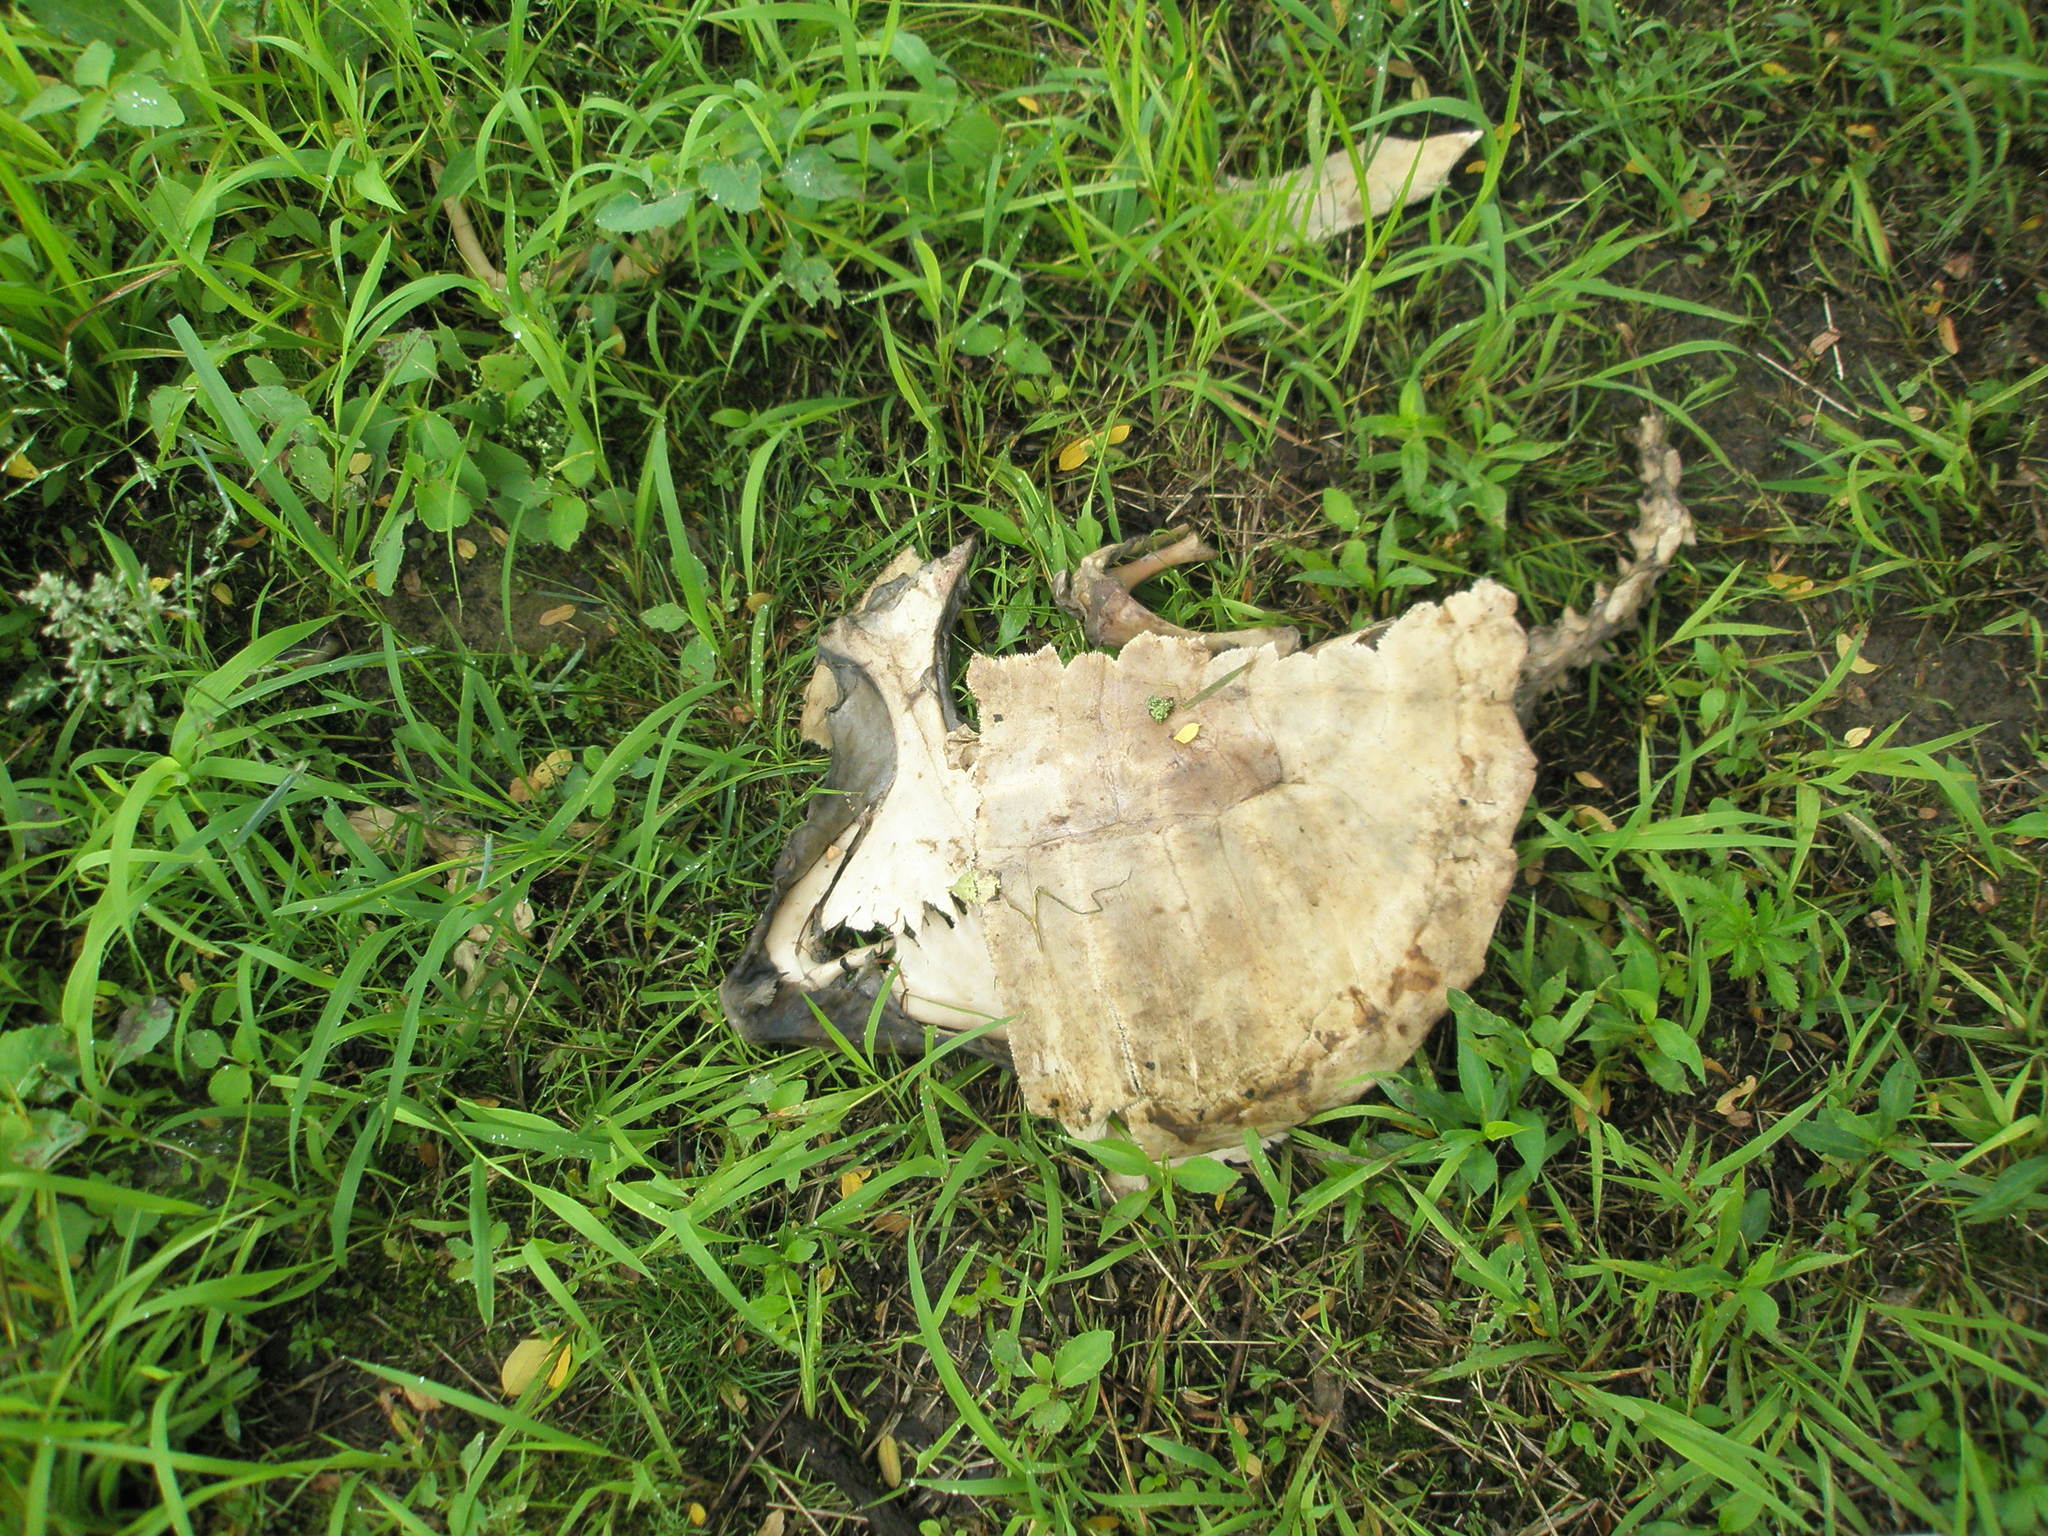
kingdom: Animalia
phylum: Chordata
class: Testudines
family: Chelydridae
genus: Chelydra
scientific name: Chelydra serpentina
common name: Common snapping turtle
